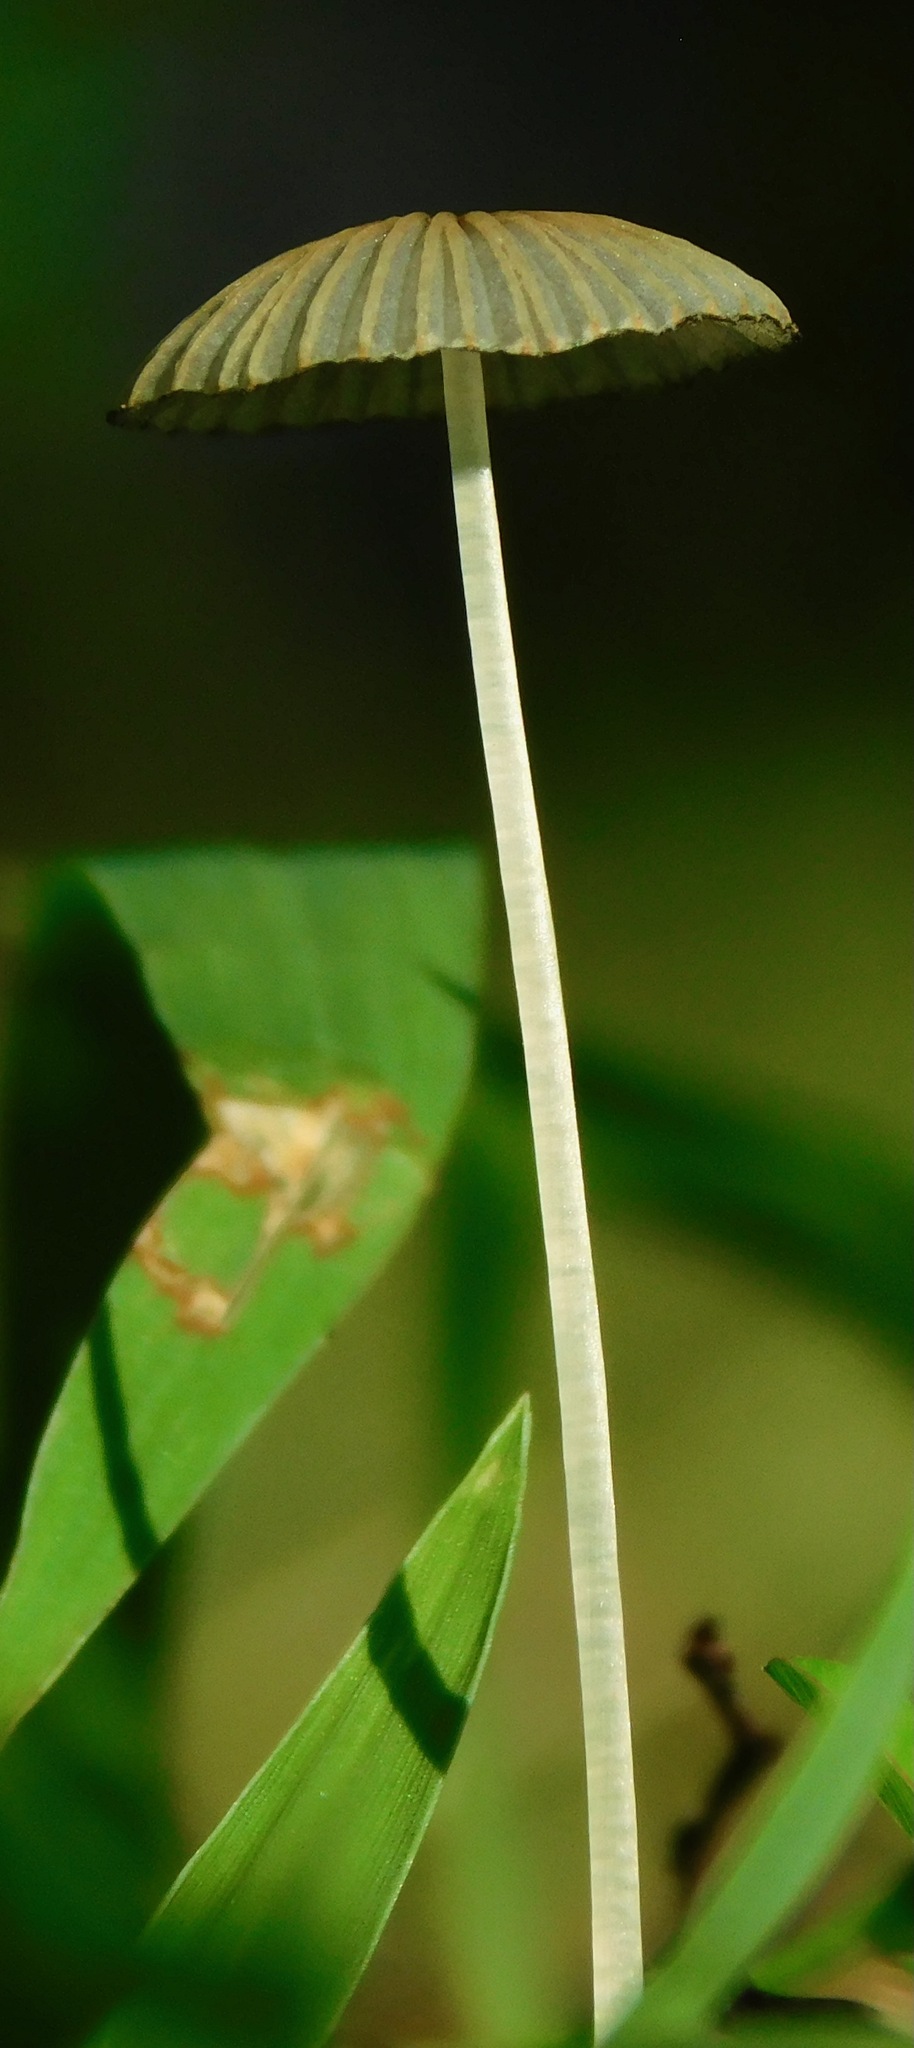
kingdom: Fungi
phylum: Basidiomycota
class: Agaricomycetes
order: Agaricales
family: Psathyrellaceae
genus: Parasola
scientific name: Parasola plicatilis
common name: Pleated inkcap
